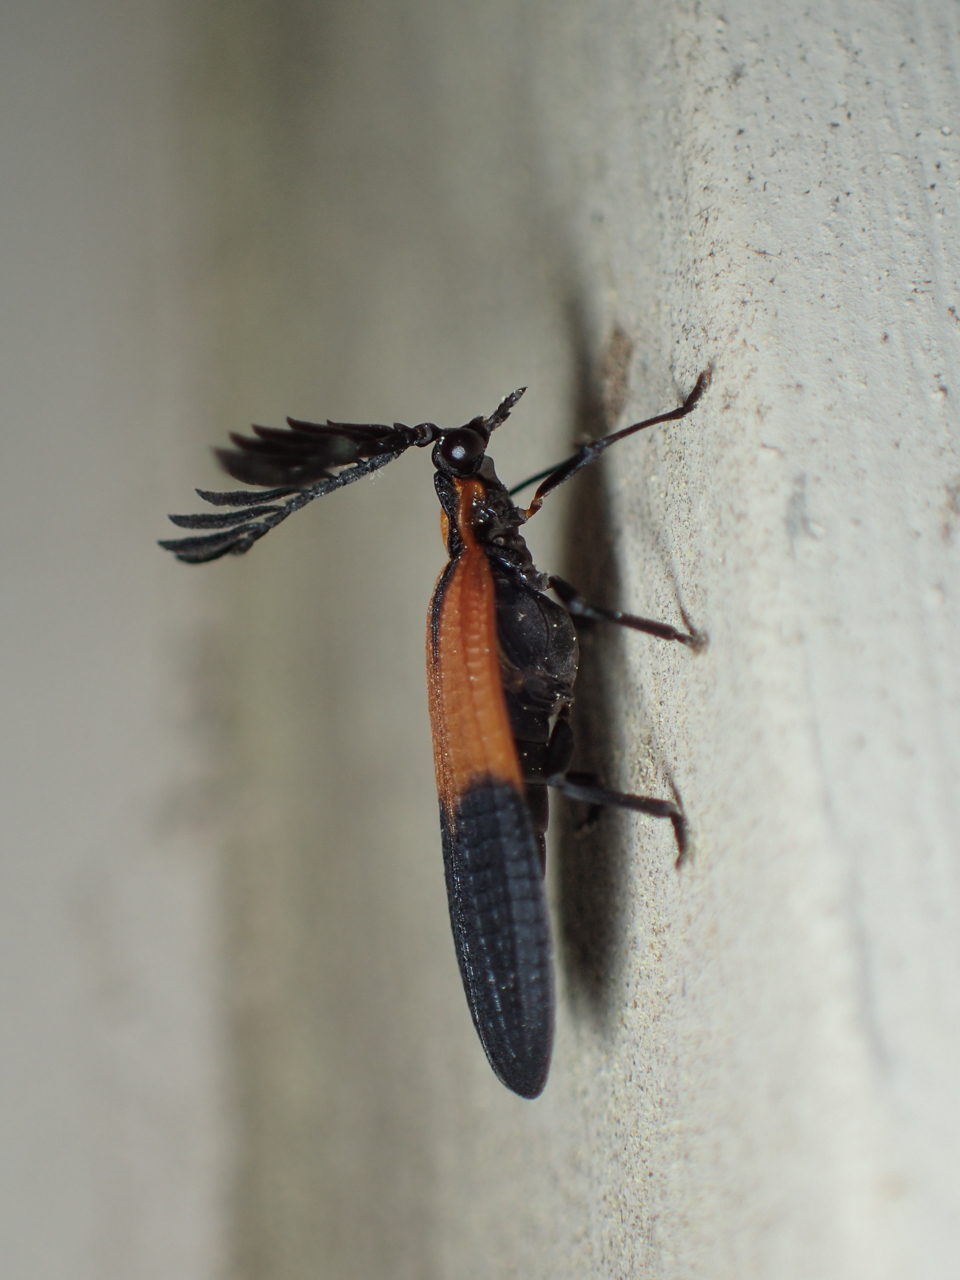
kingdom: Animalia
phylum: Arthropoda
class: Insecta
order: Coleoptera
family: Lycidae
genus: Caenia
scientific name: Caenia dimidiata
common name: Terminal net-winged beetle
